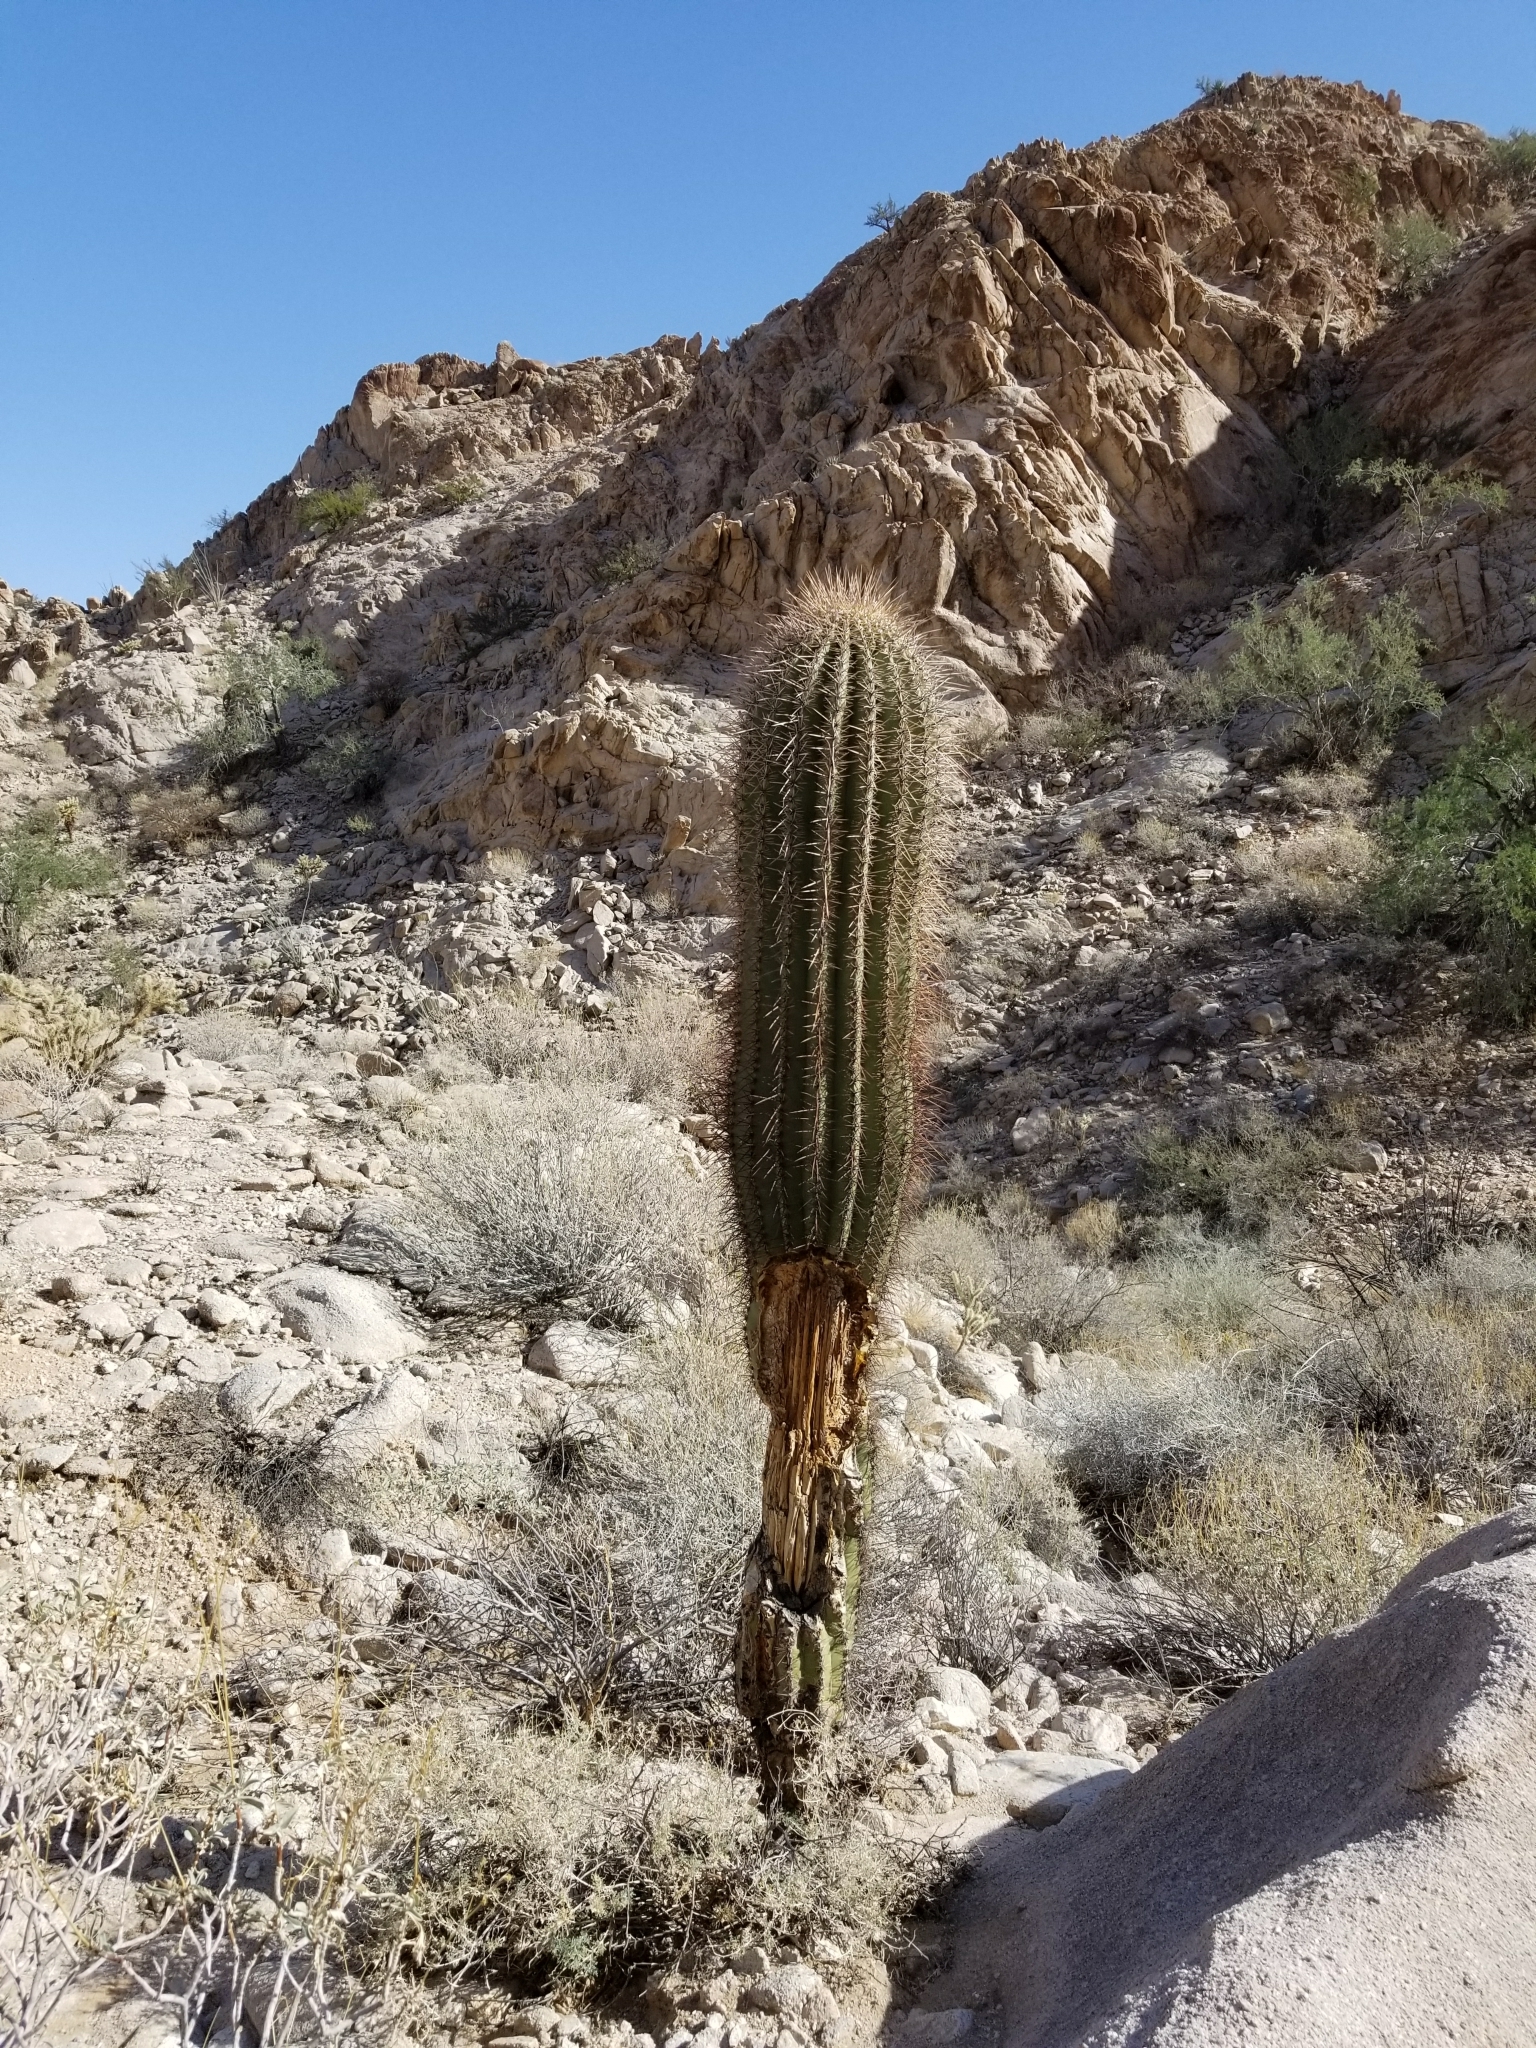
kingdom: Plantae
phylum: Tracheophyta
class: Magnoliopsida
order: Caryophyllales
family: Cactaceae
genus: Carnegiea
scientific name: Carnegiea gigantea
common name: Saguaro
